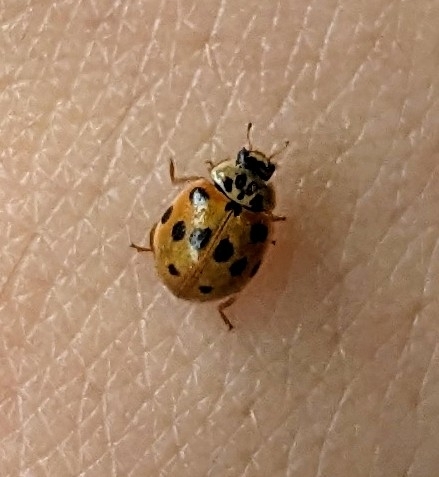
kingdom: Animalia
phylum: Arthropoda
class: Insecta
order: Coleoptera
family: Coccinellidae
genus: Adalia
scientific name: Adalia decempunctata
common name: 10-spot ladybird
